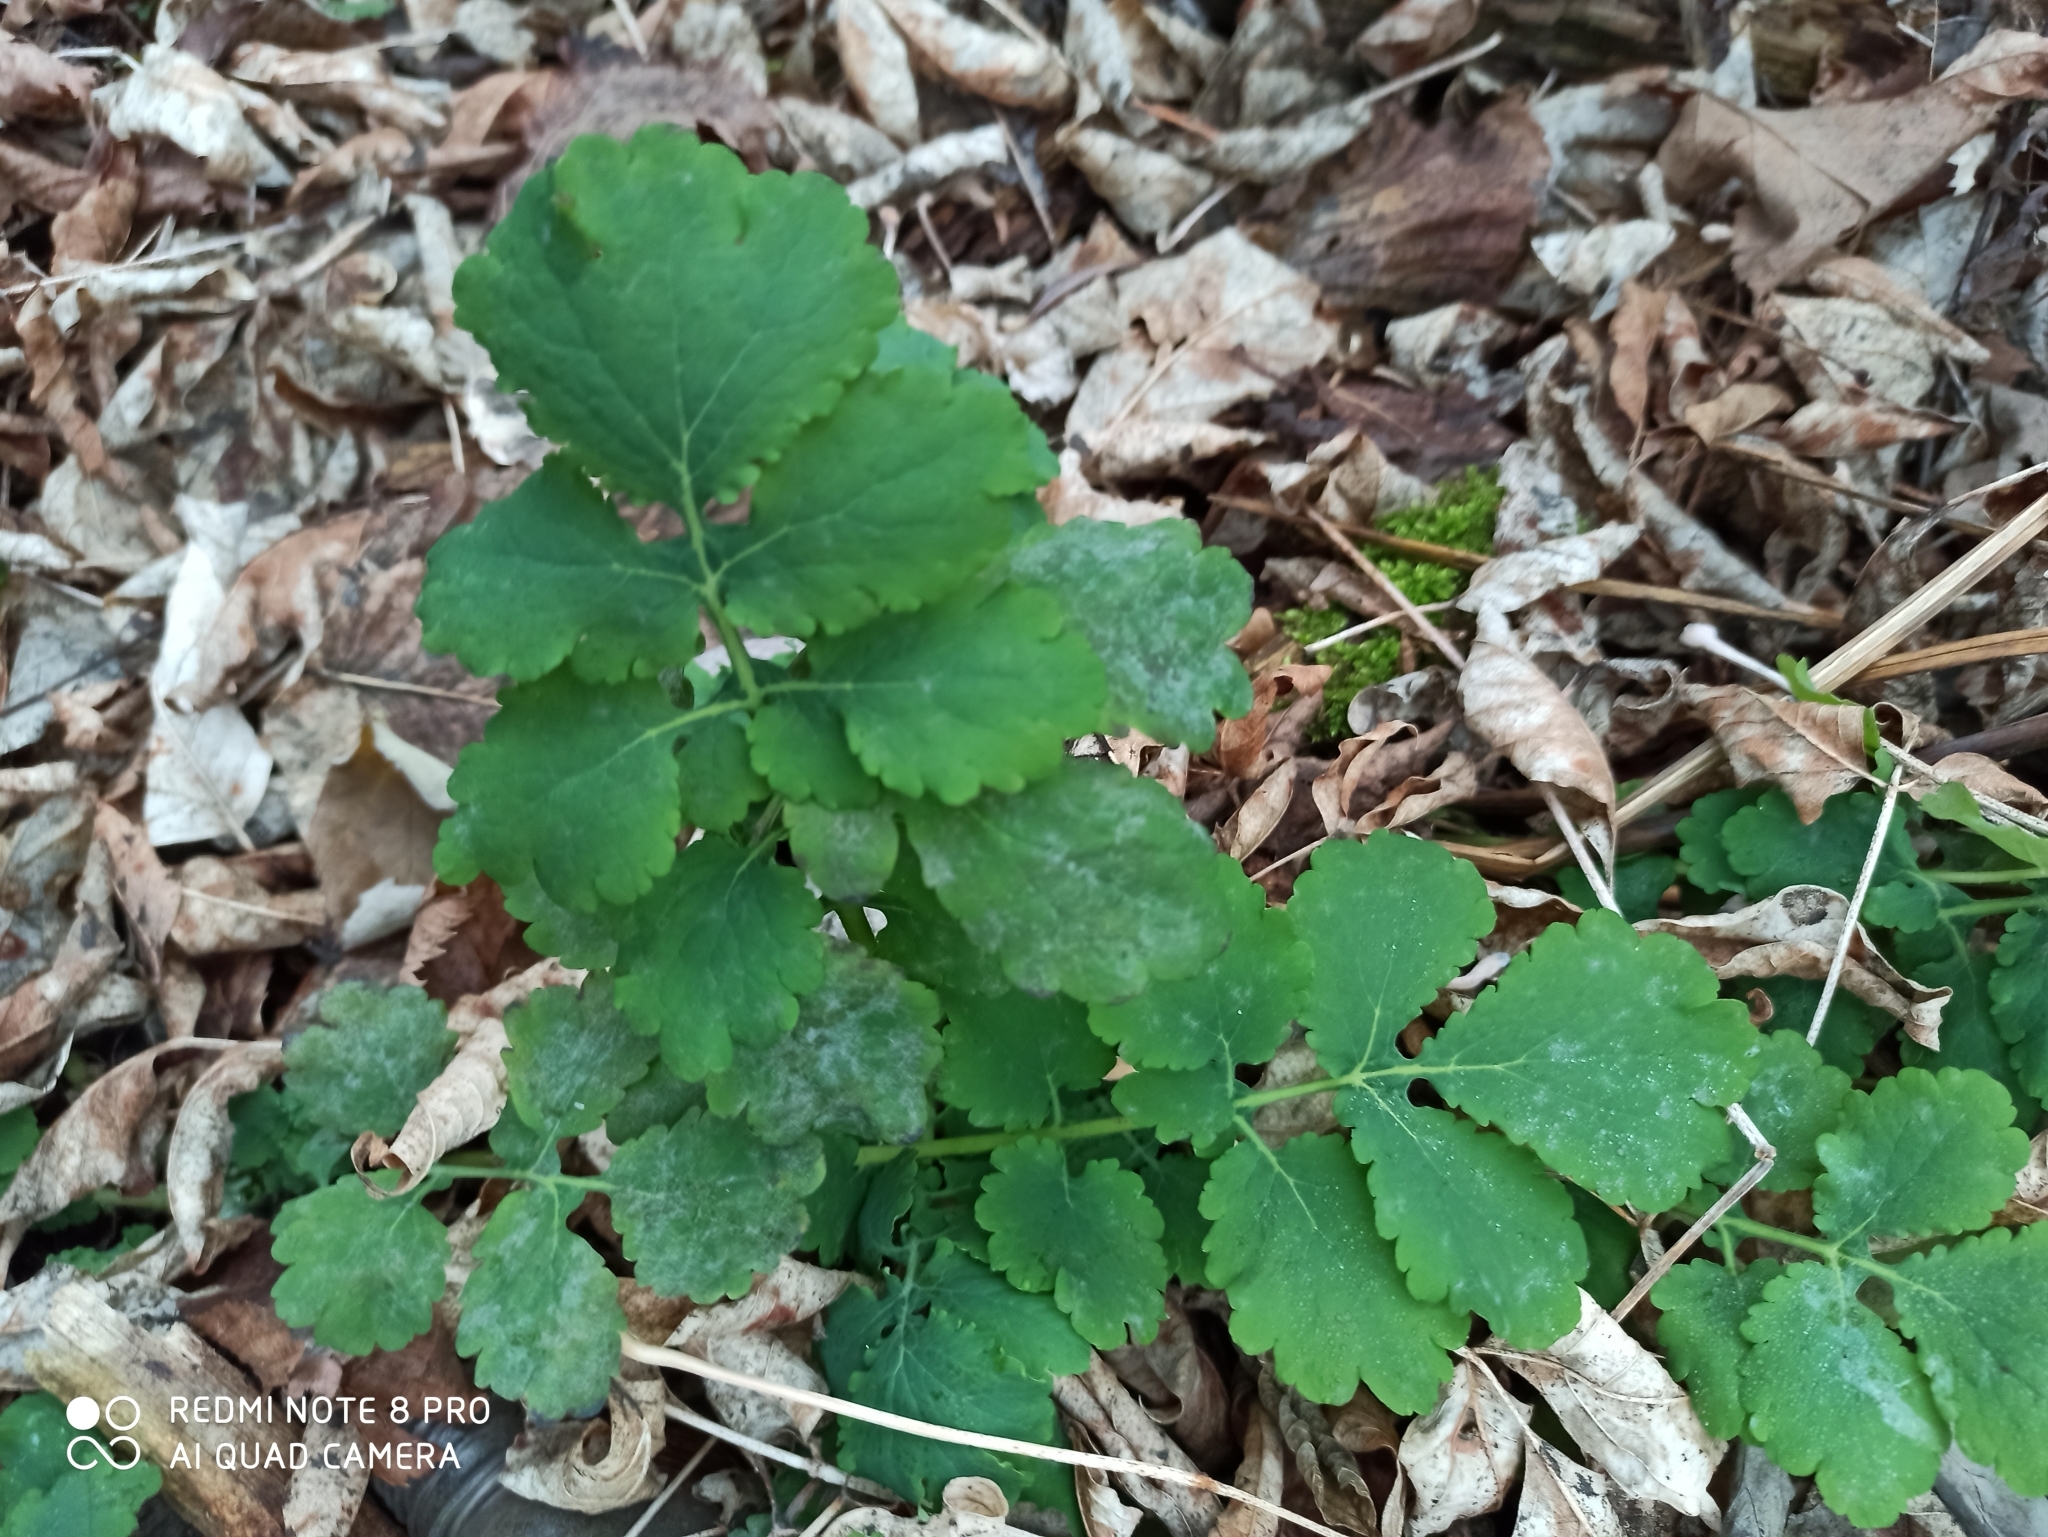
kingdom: Plantae
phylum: Tracheophyta
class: Magnoliopsida
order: Ranunculales
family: Papaveraceae
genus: Chelidonium
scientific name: Chelidonium majus
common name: Greater celandine
